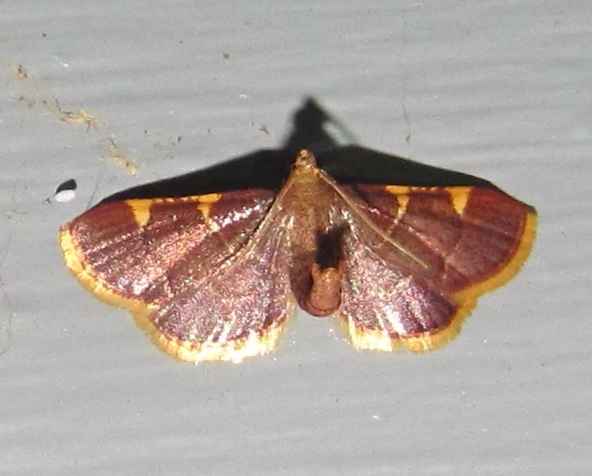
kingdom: Animalia
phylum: Arthropoda
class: Insecta
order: Lepidoptera
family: Pyralidae
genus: Hypsopygia
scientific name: Hypsopygia olinalis
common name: Yellow-fringed dolichomia moth
